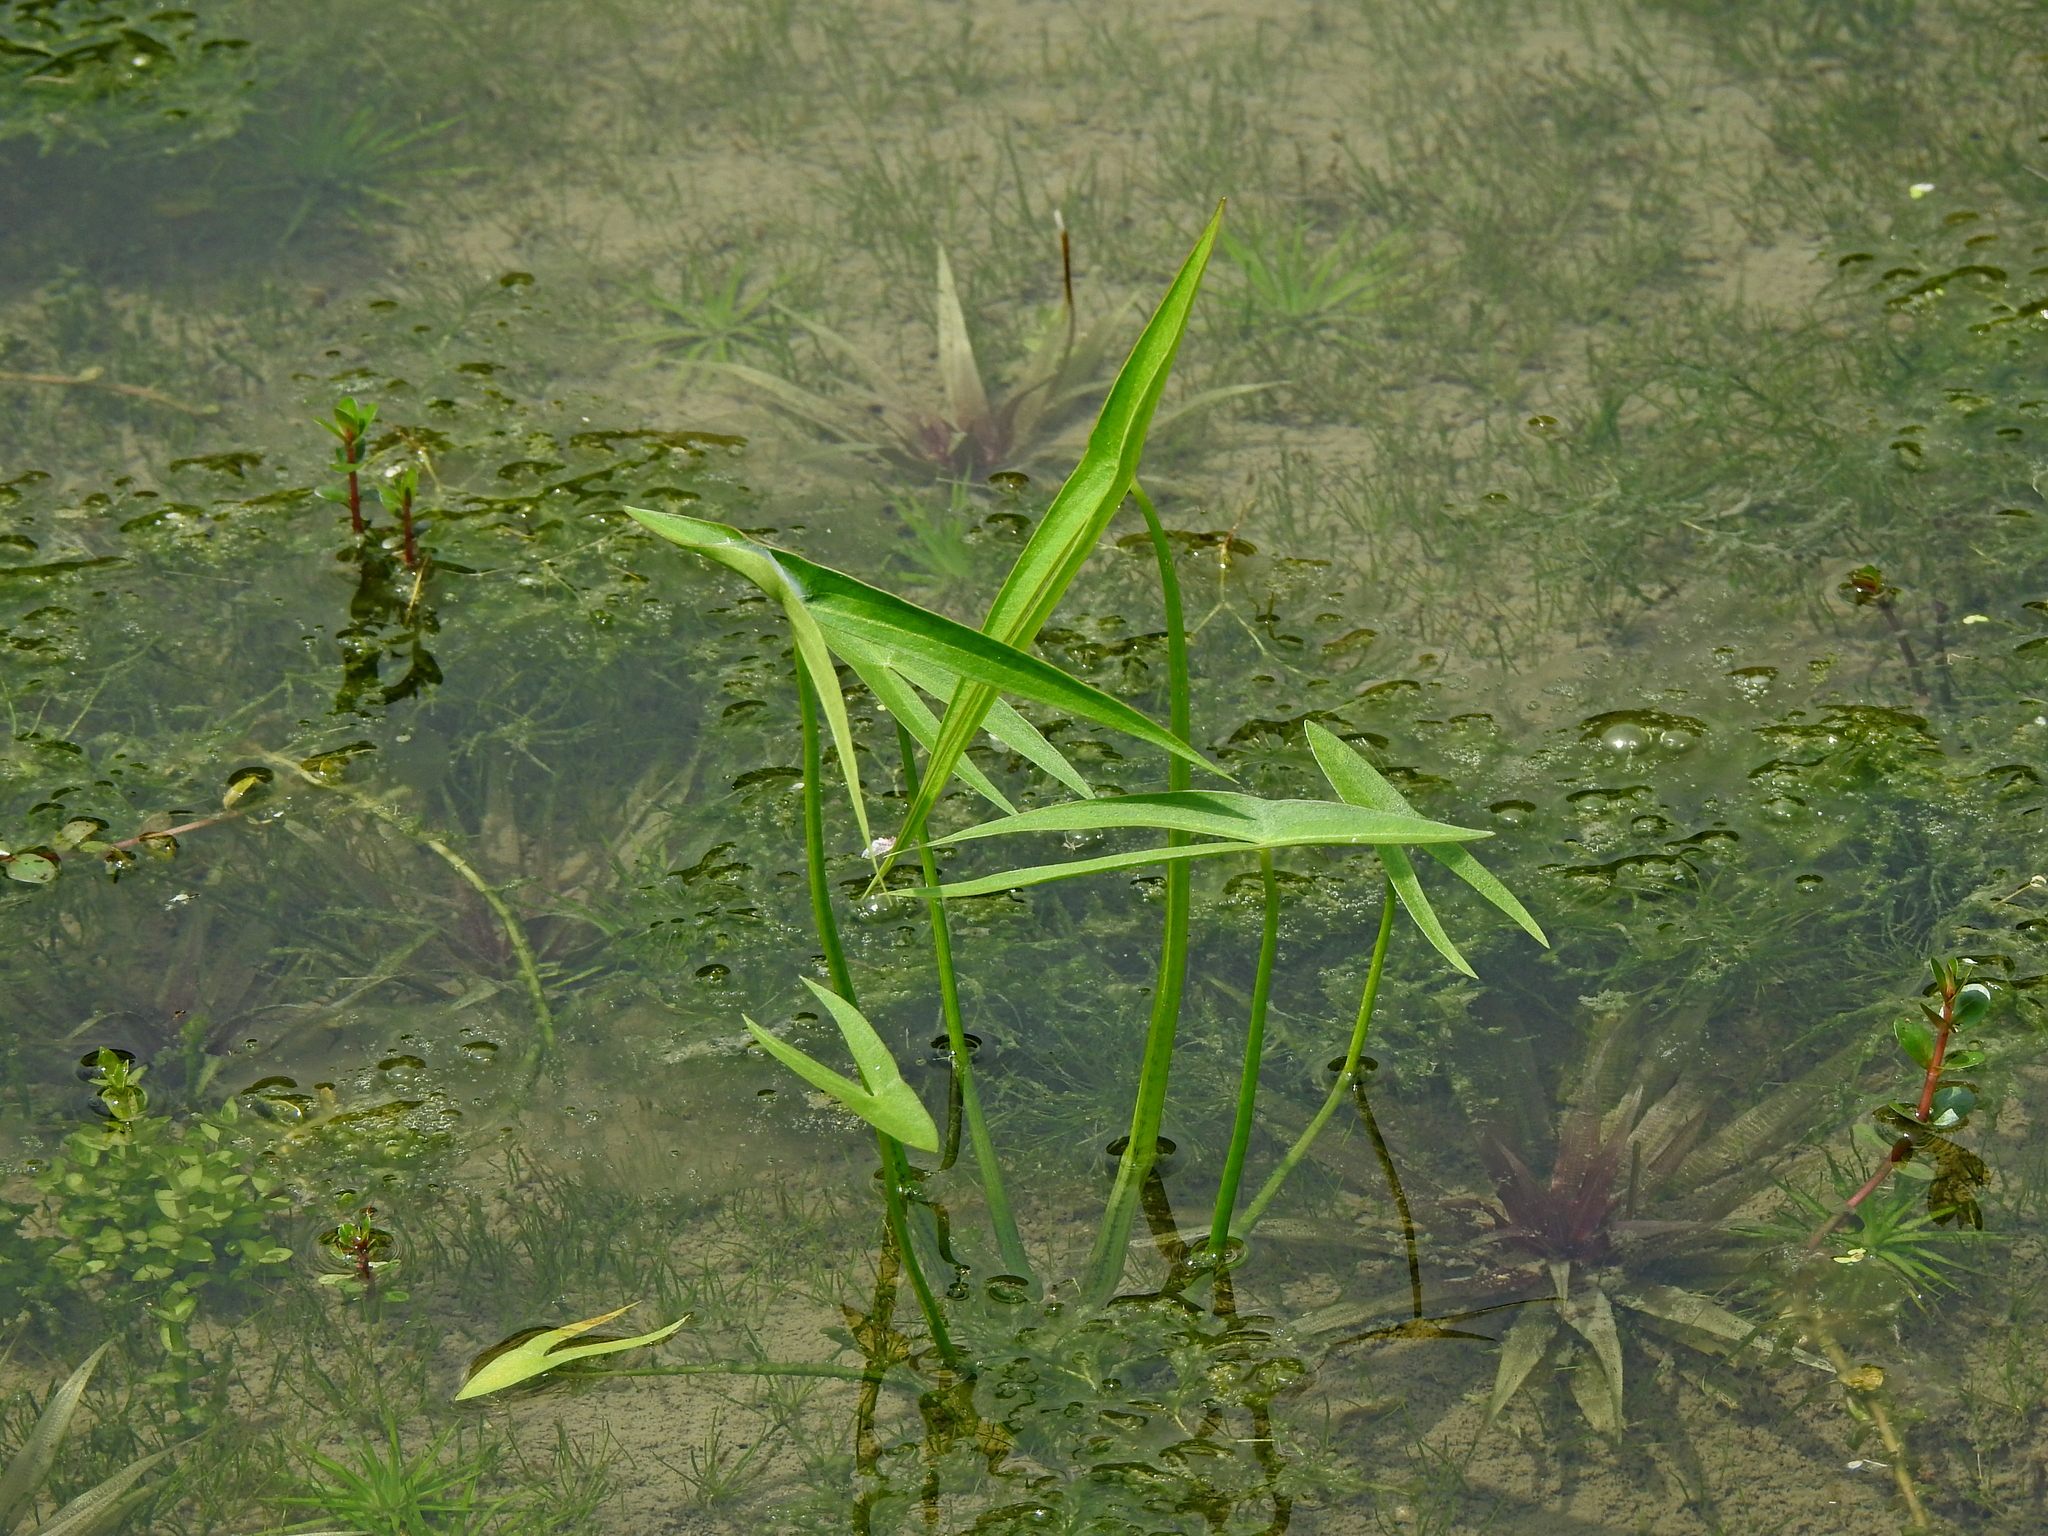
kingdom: Plantae
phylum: Tracheophyta
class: Liliopsida
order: Alismatales
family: Alismataceae
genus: Sagittaria
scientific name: Sagittaria trifolia
